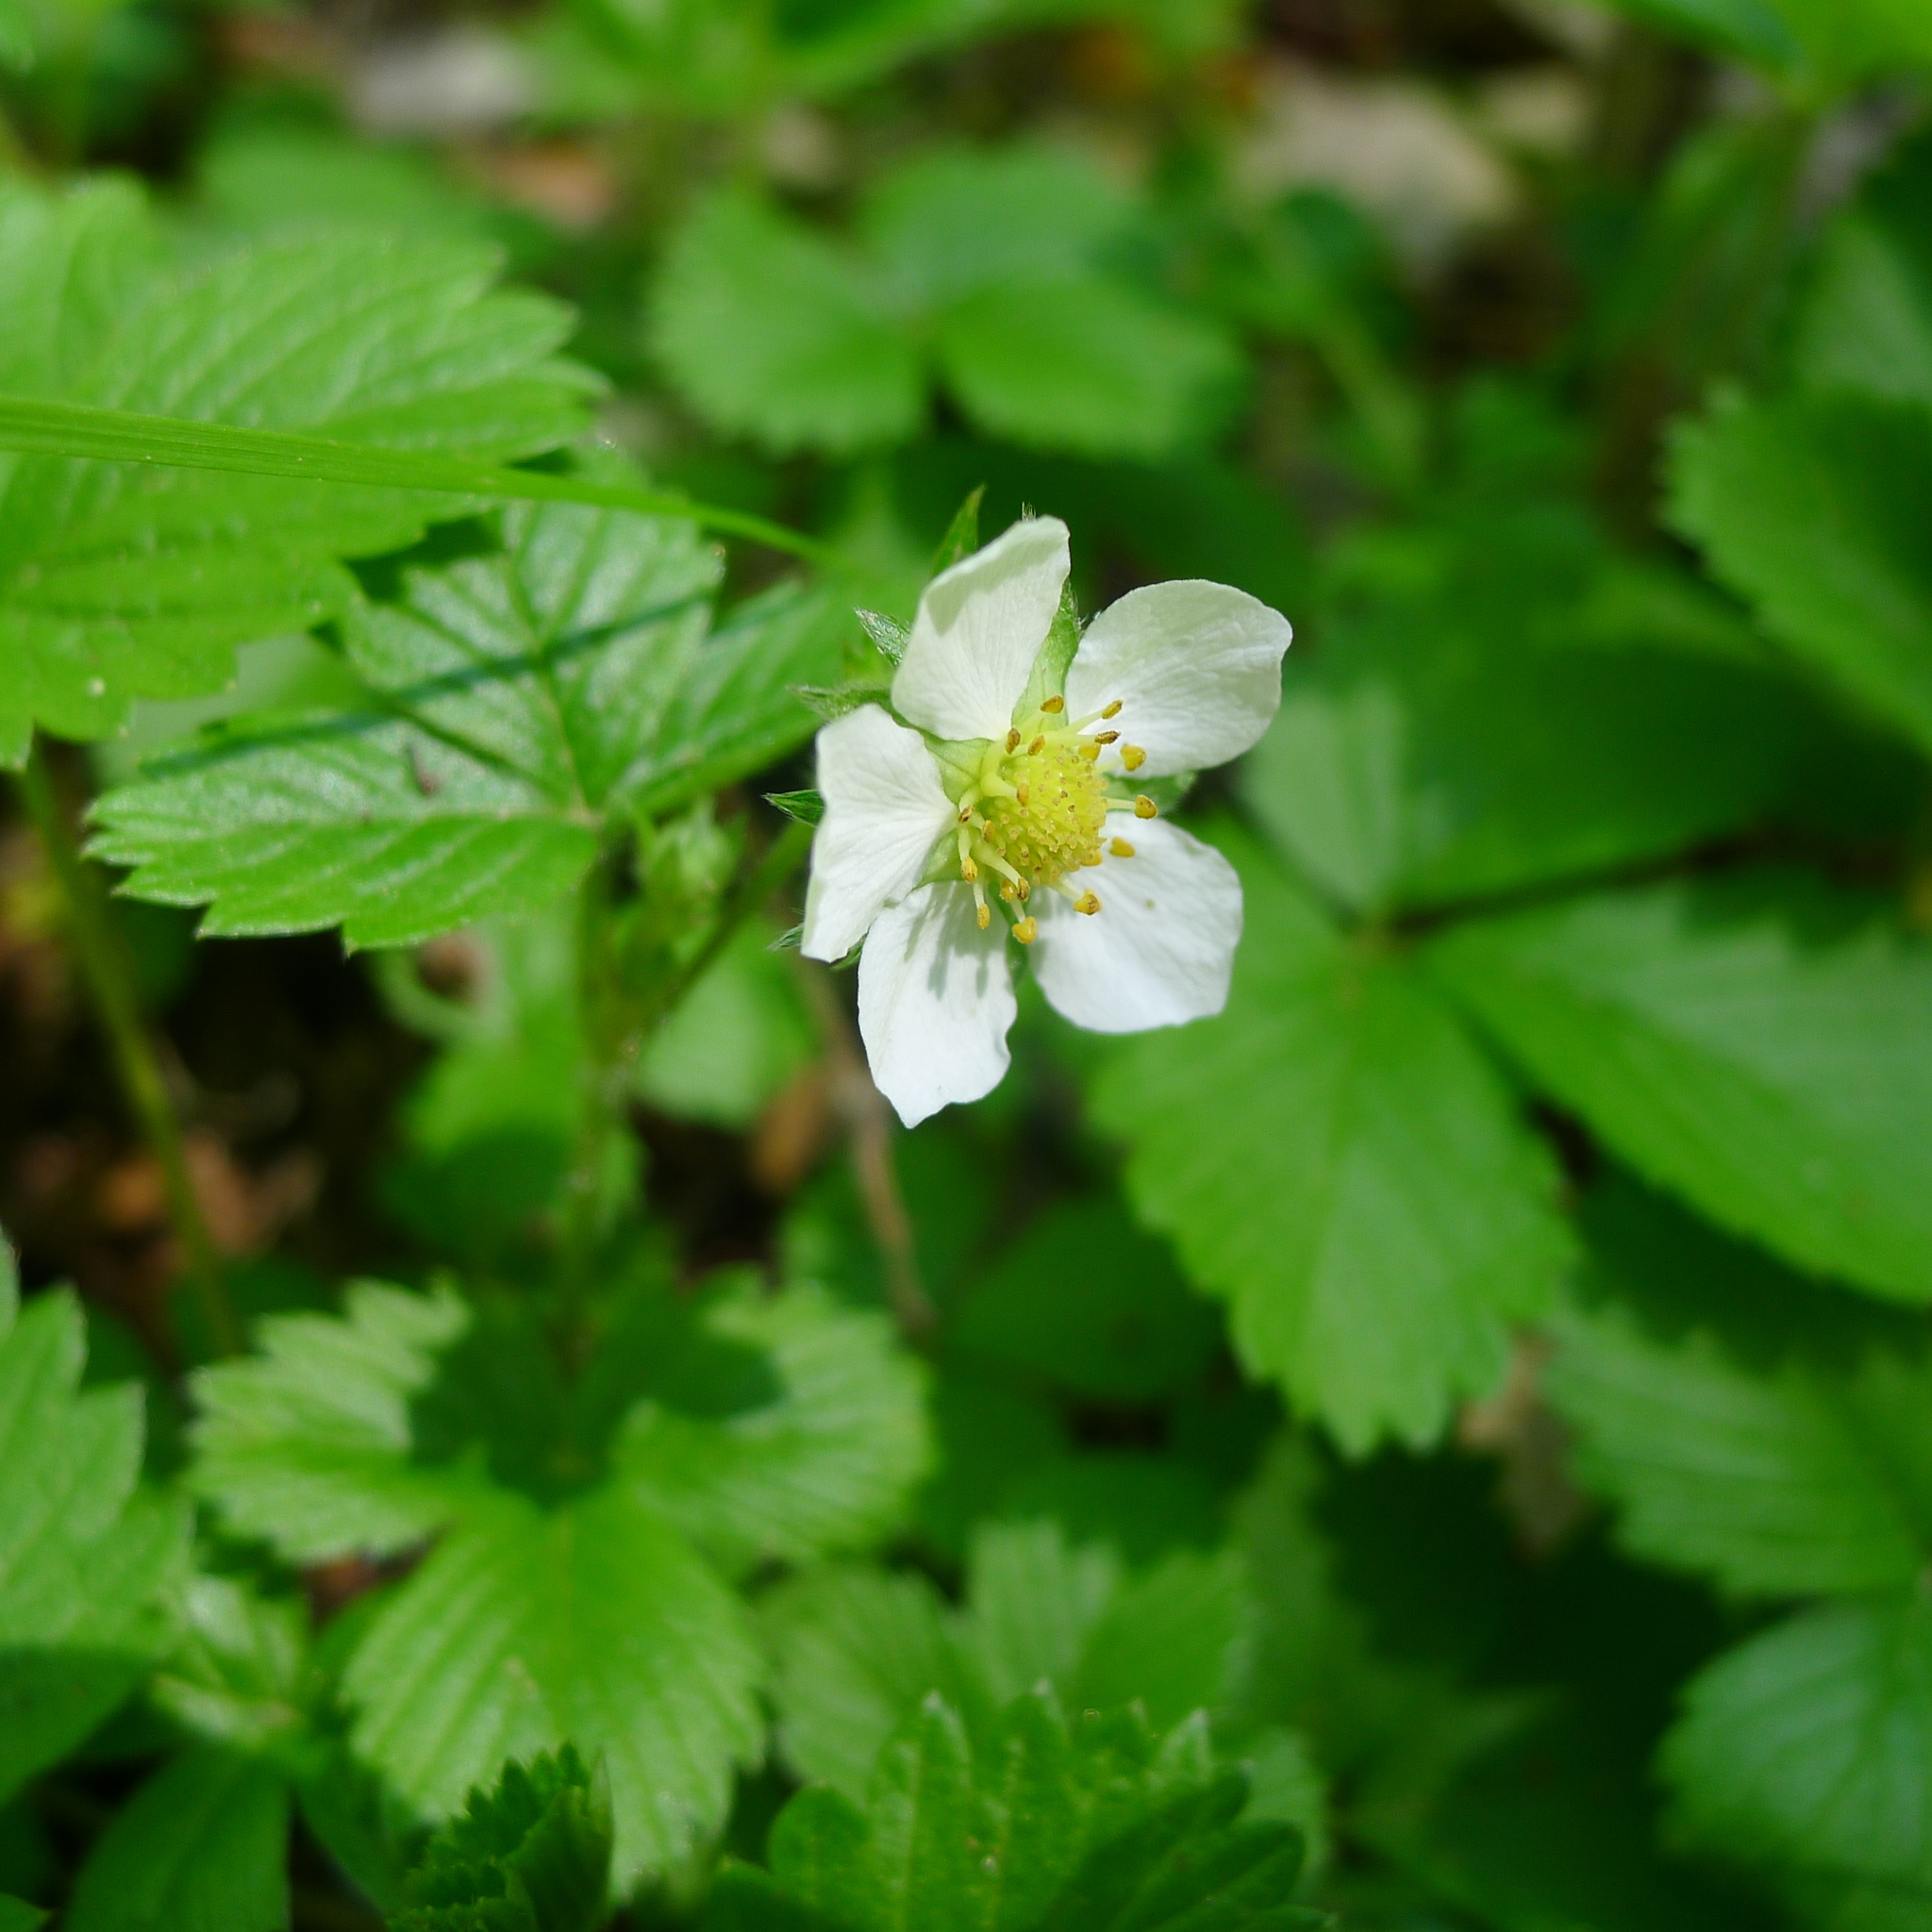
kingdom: Plantae
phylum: Tracheophyta
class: Magnoliopsida
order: Rosales
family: Rosaceae
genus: Fragaria
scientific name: Fragaria vesca
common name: Wild strawberry
